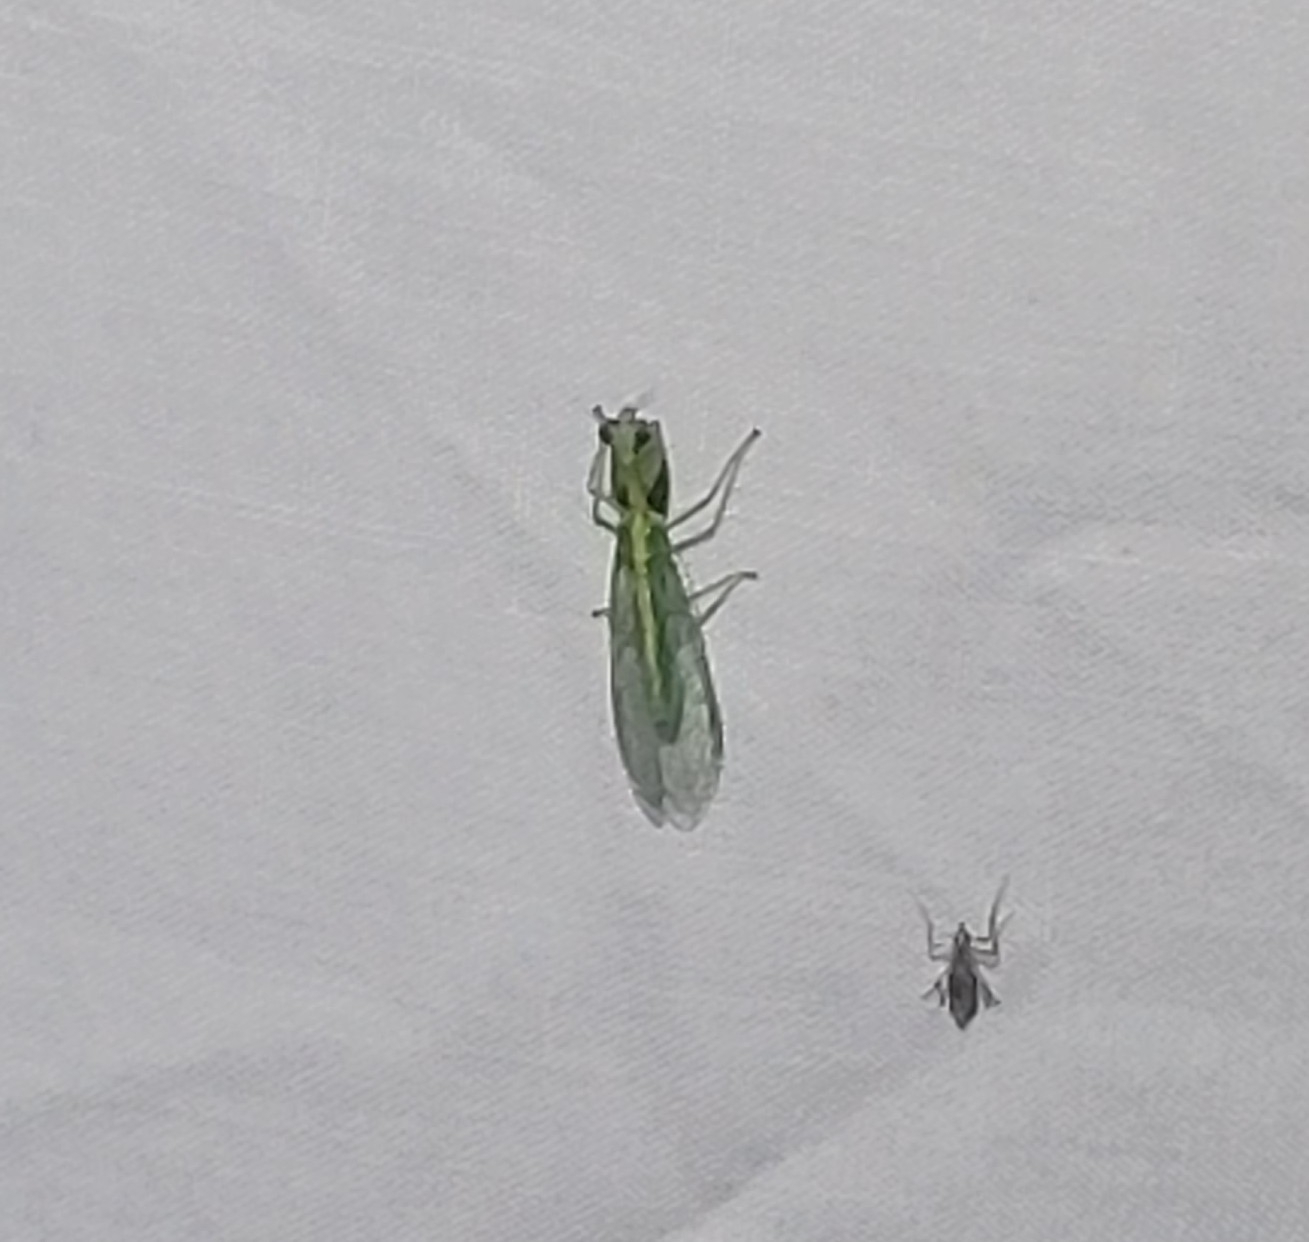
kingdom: Animalia
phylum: Arthropoda
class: Insecta
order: Neuroptera
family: Mantispidae
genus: Zeugomantispa
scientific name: Zeugomantispa minuta
